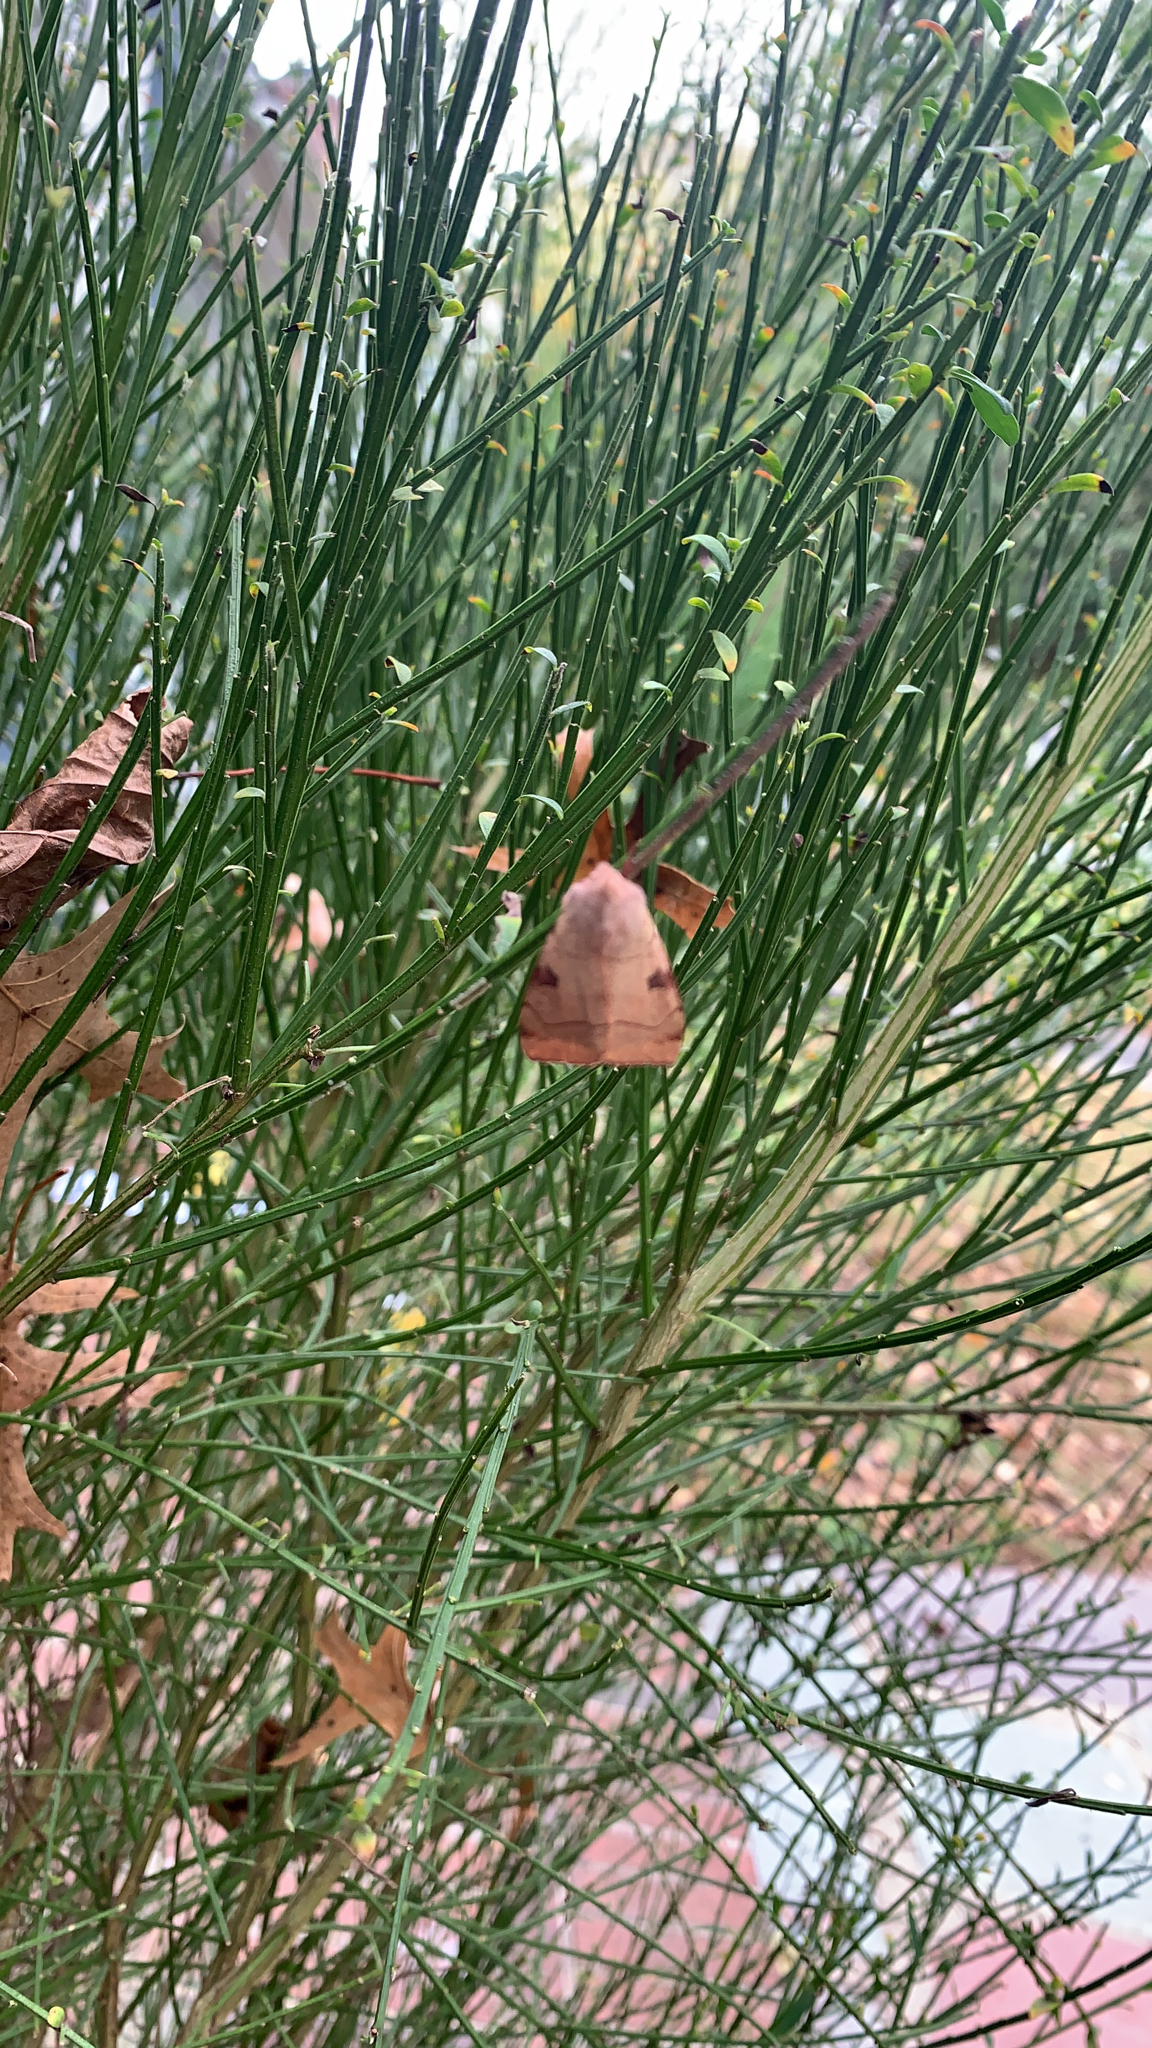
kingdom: Animalia
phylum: Arthropoda
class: Insecta
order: Lepidoptera
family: Noctuidae
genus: Choephora
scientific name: Choephora fungorum
